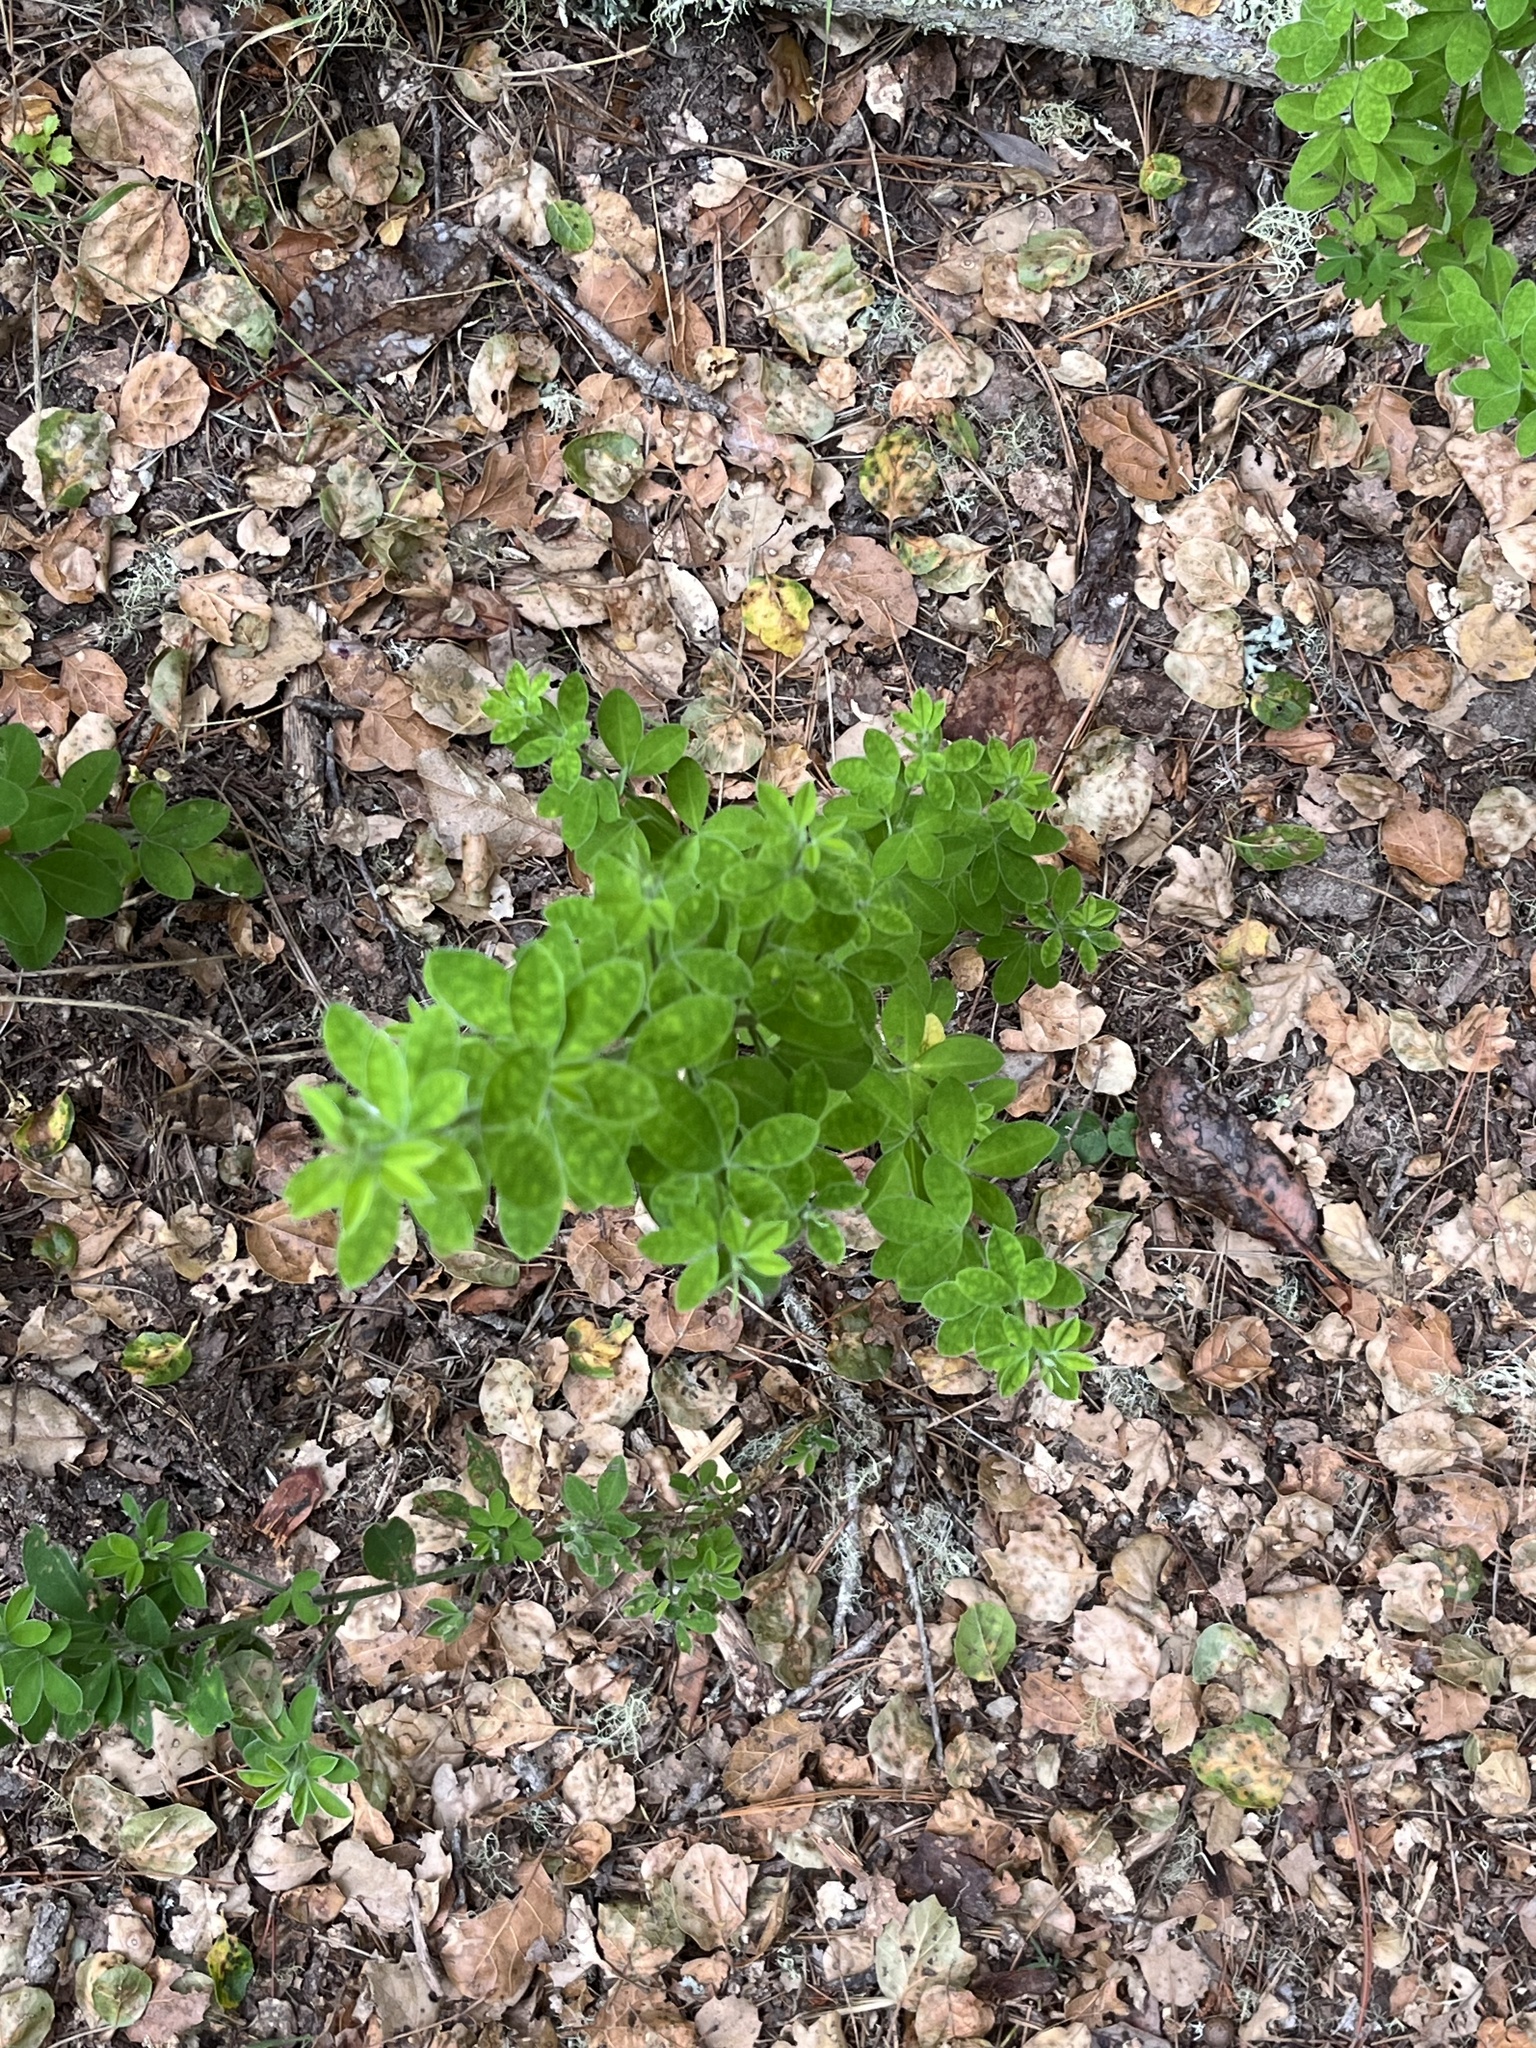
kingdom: Plantae
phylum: Tracheophyta
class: Magnoliopsida
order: Fabales
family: Fabaceae
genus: Genista
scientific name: Genista monspessulana
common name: Montpellier broom
